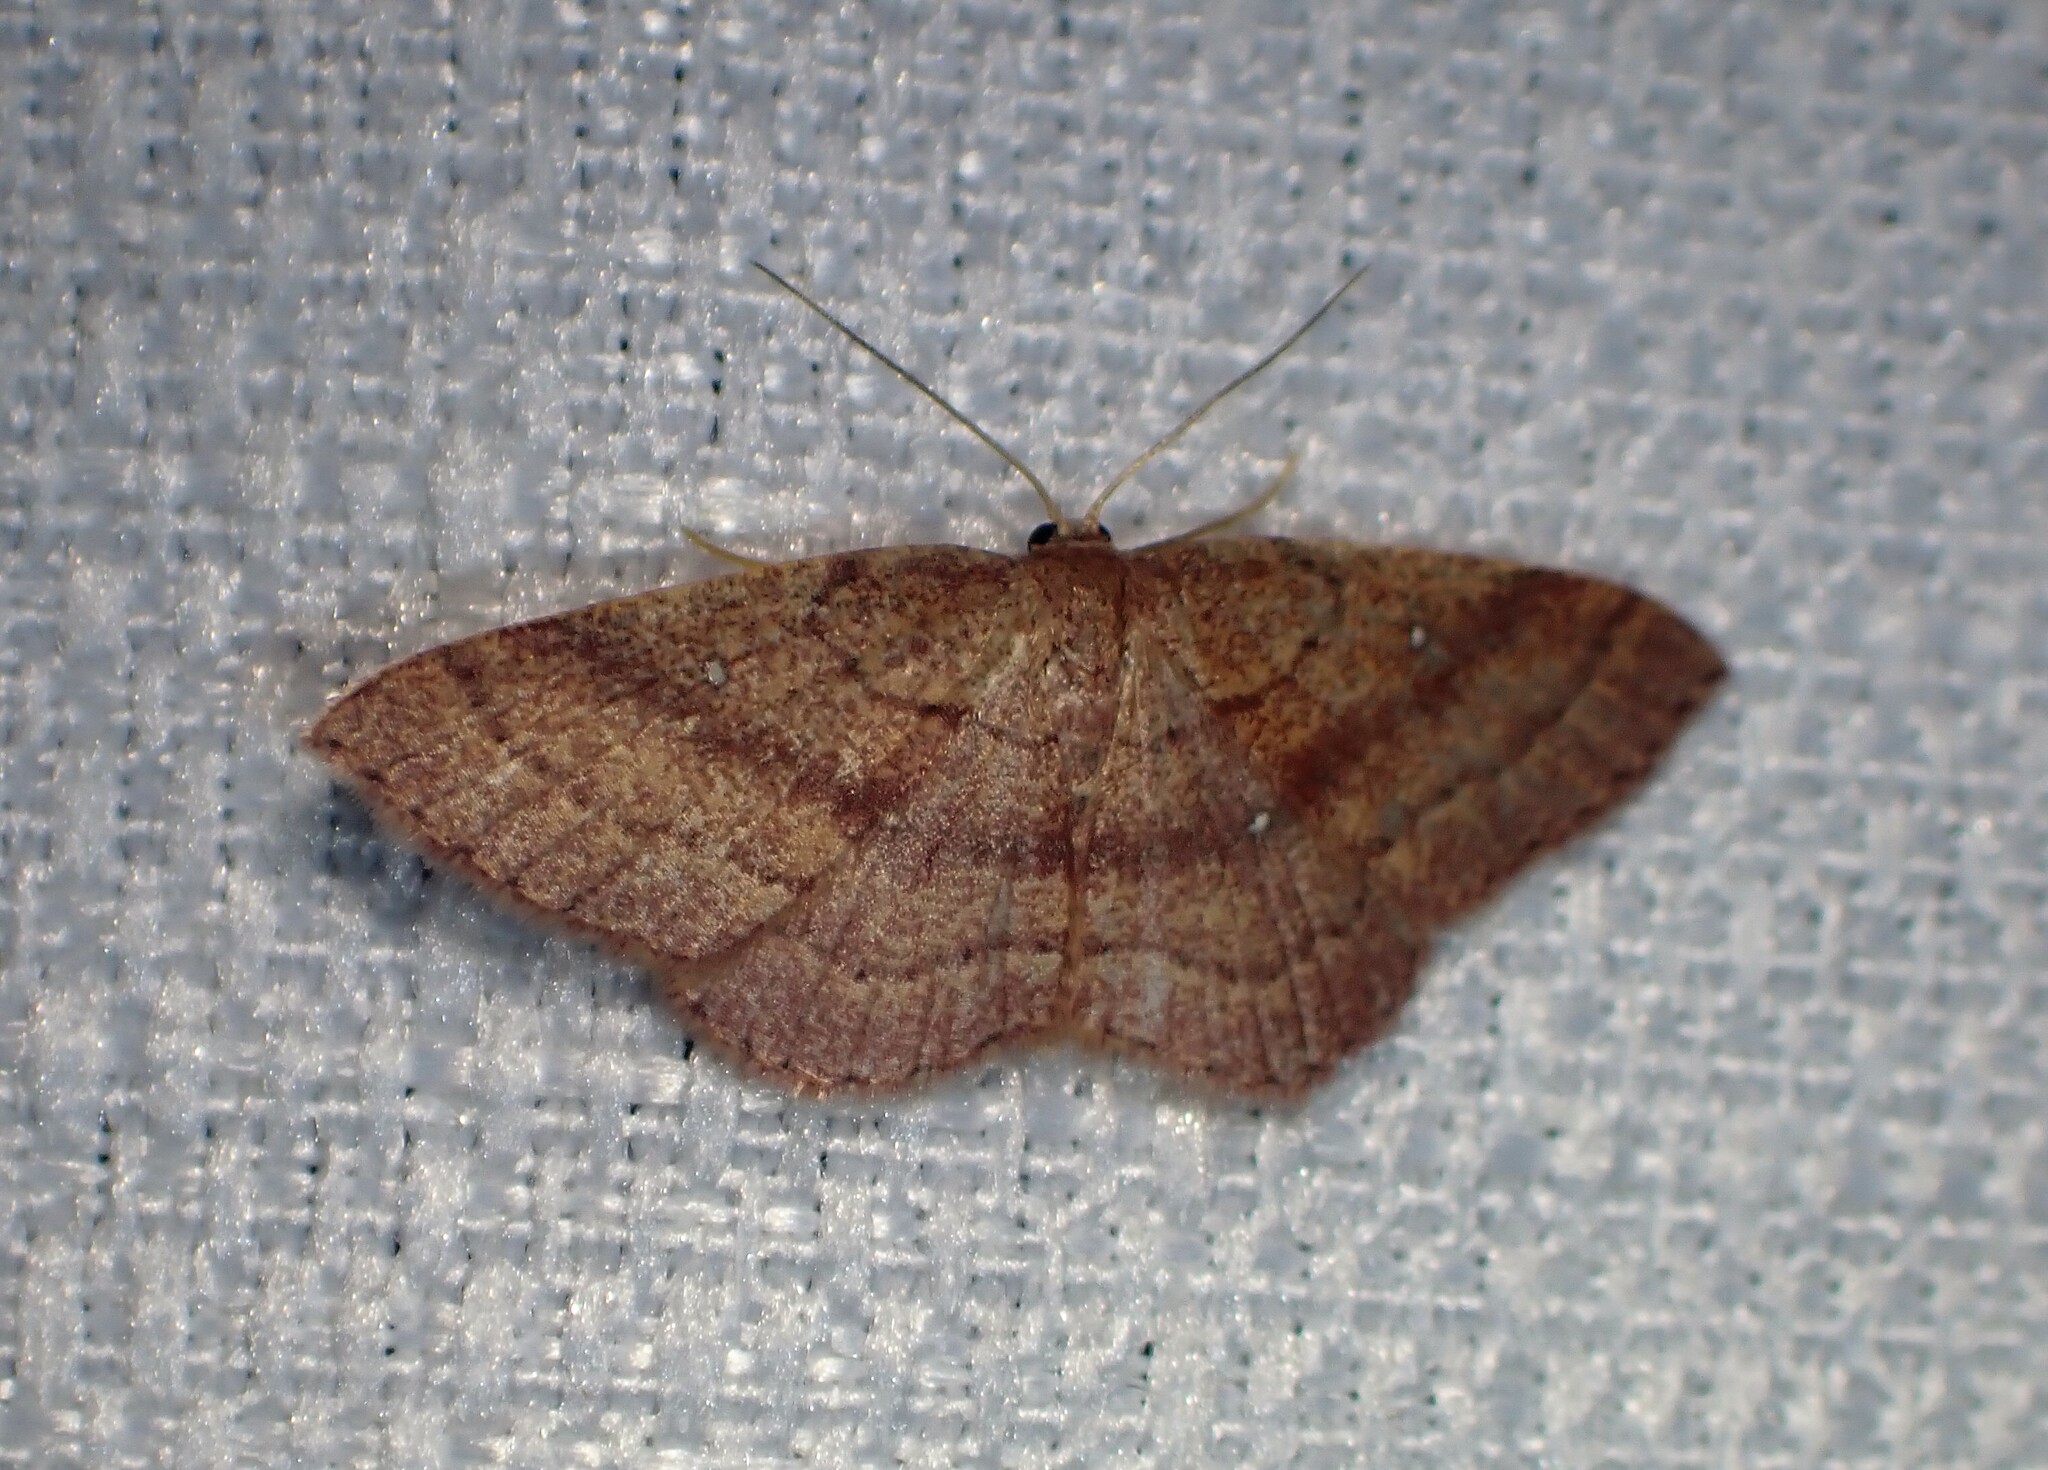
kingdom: Animalia
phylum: Arthropoda
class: Insecta
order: Lepidoptera
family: Geometridae
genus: Cyclophora
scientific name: Cyclophora azorensis
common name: Geometer moth
